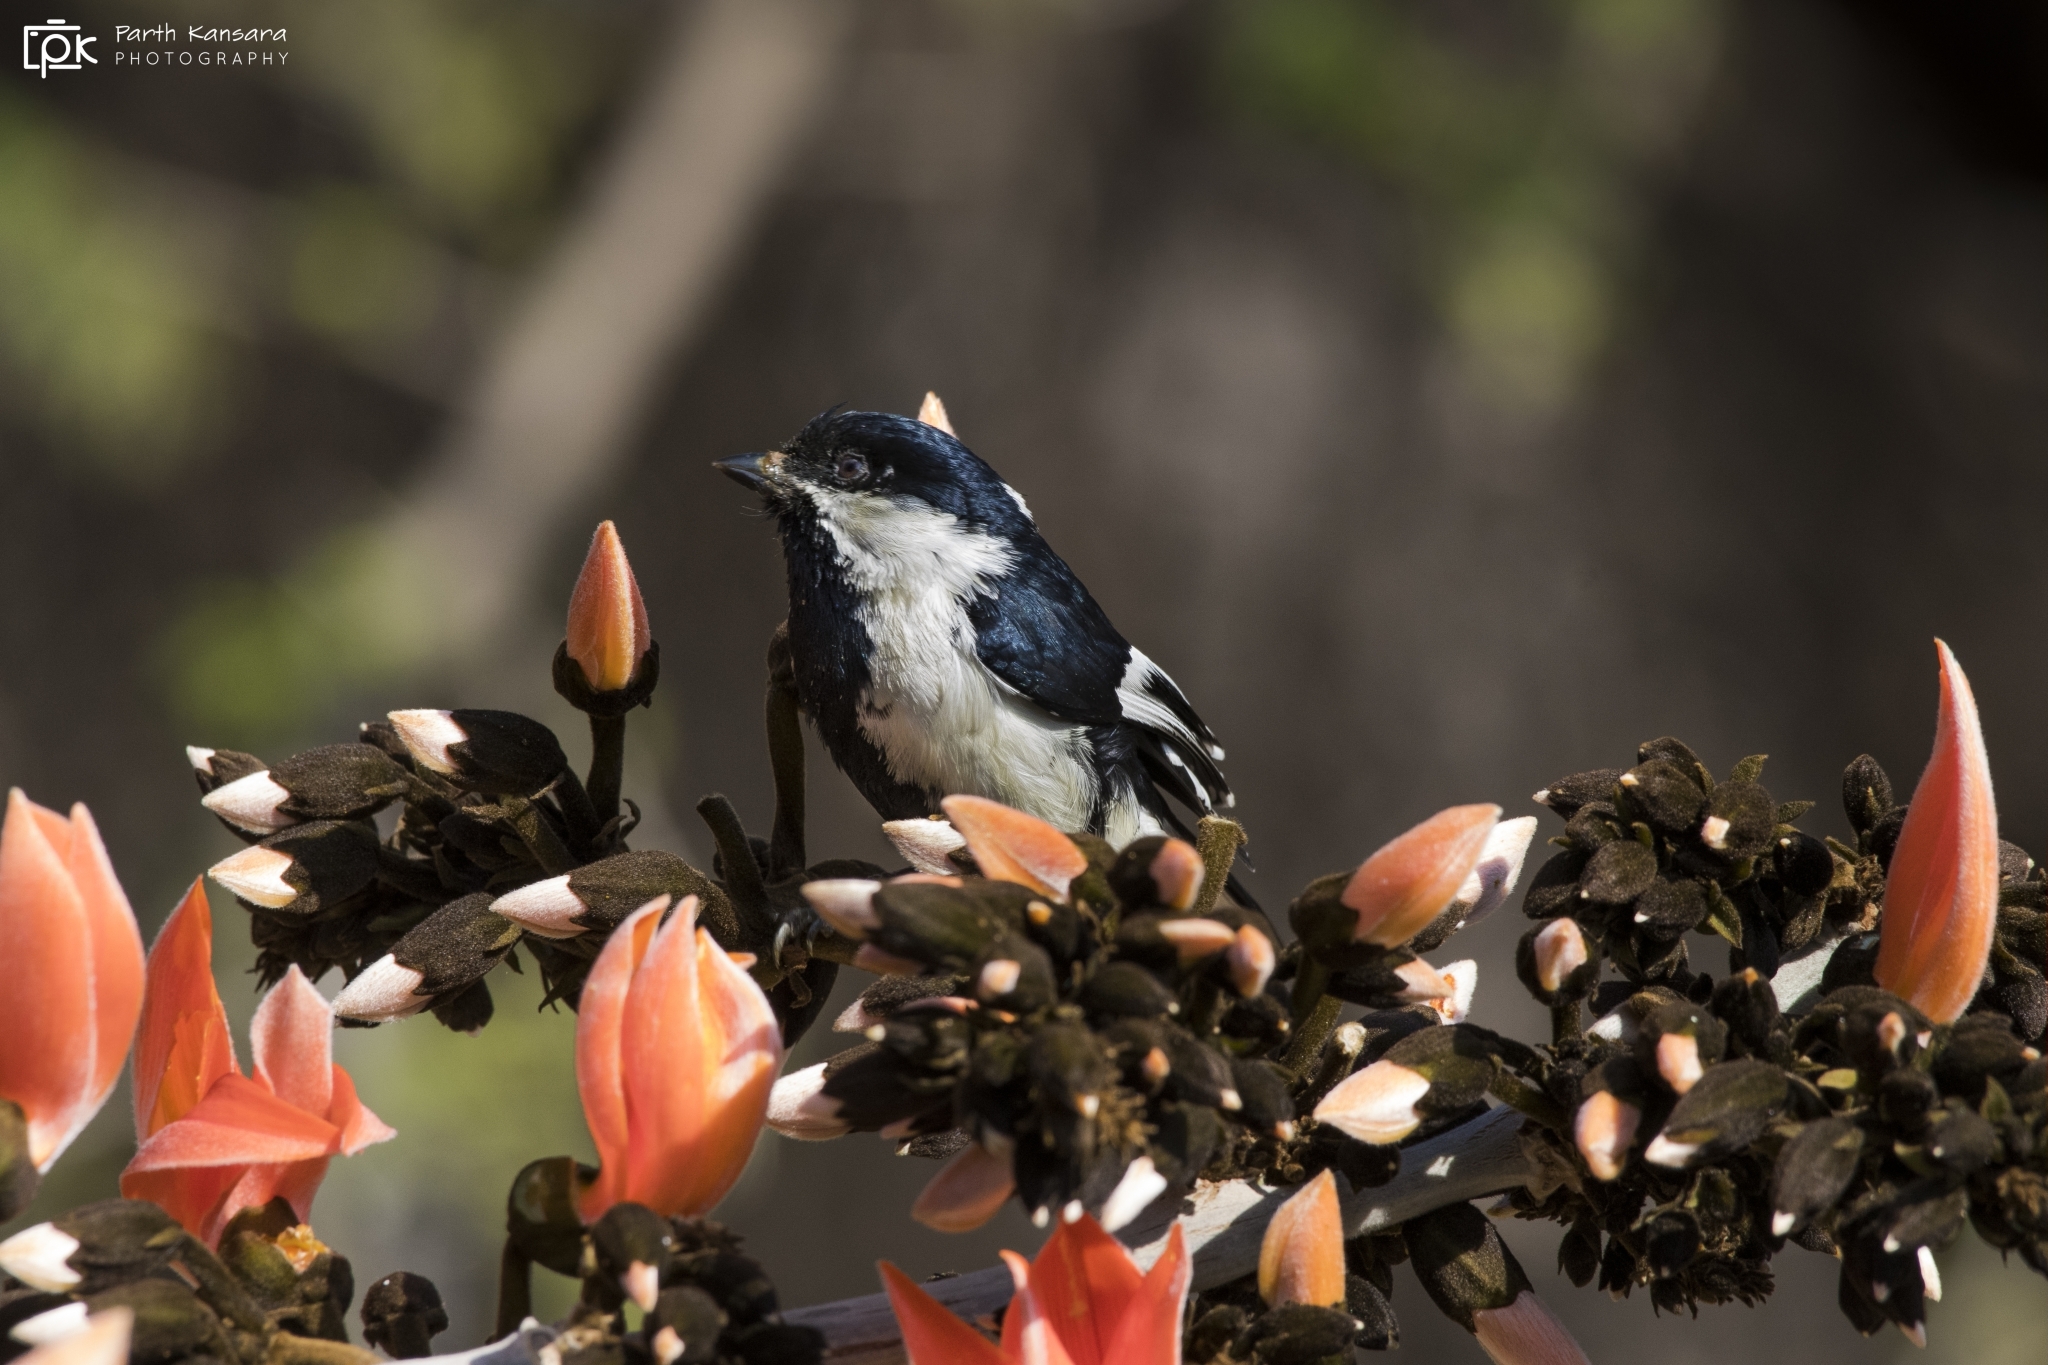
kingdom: Animalia
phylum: Chordata
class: Aves
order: Passeriformes
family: Paridae
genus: Parus
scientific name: Parus nuchalis
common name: White-naped tit
